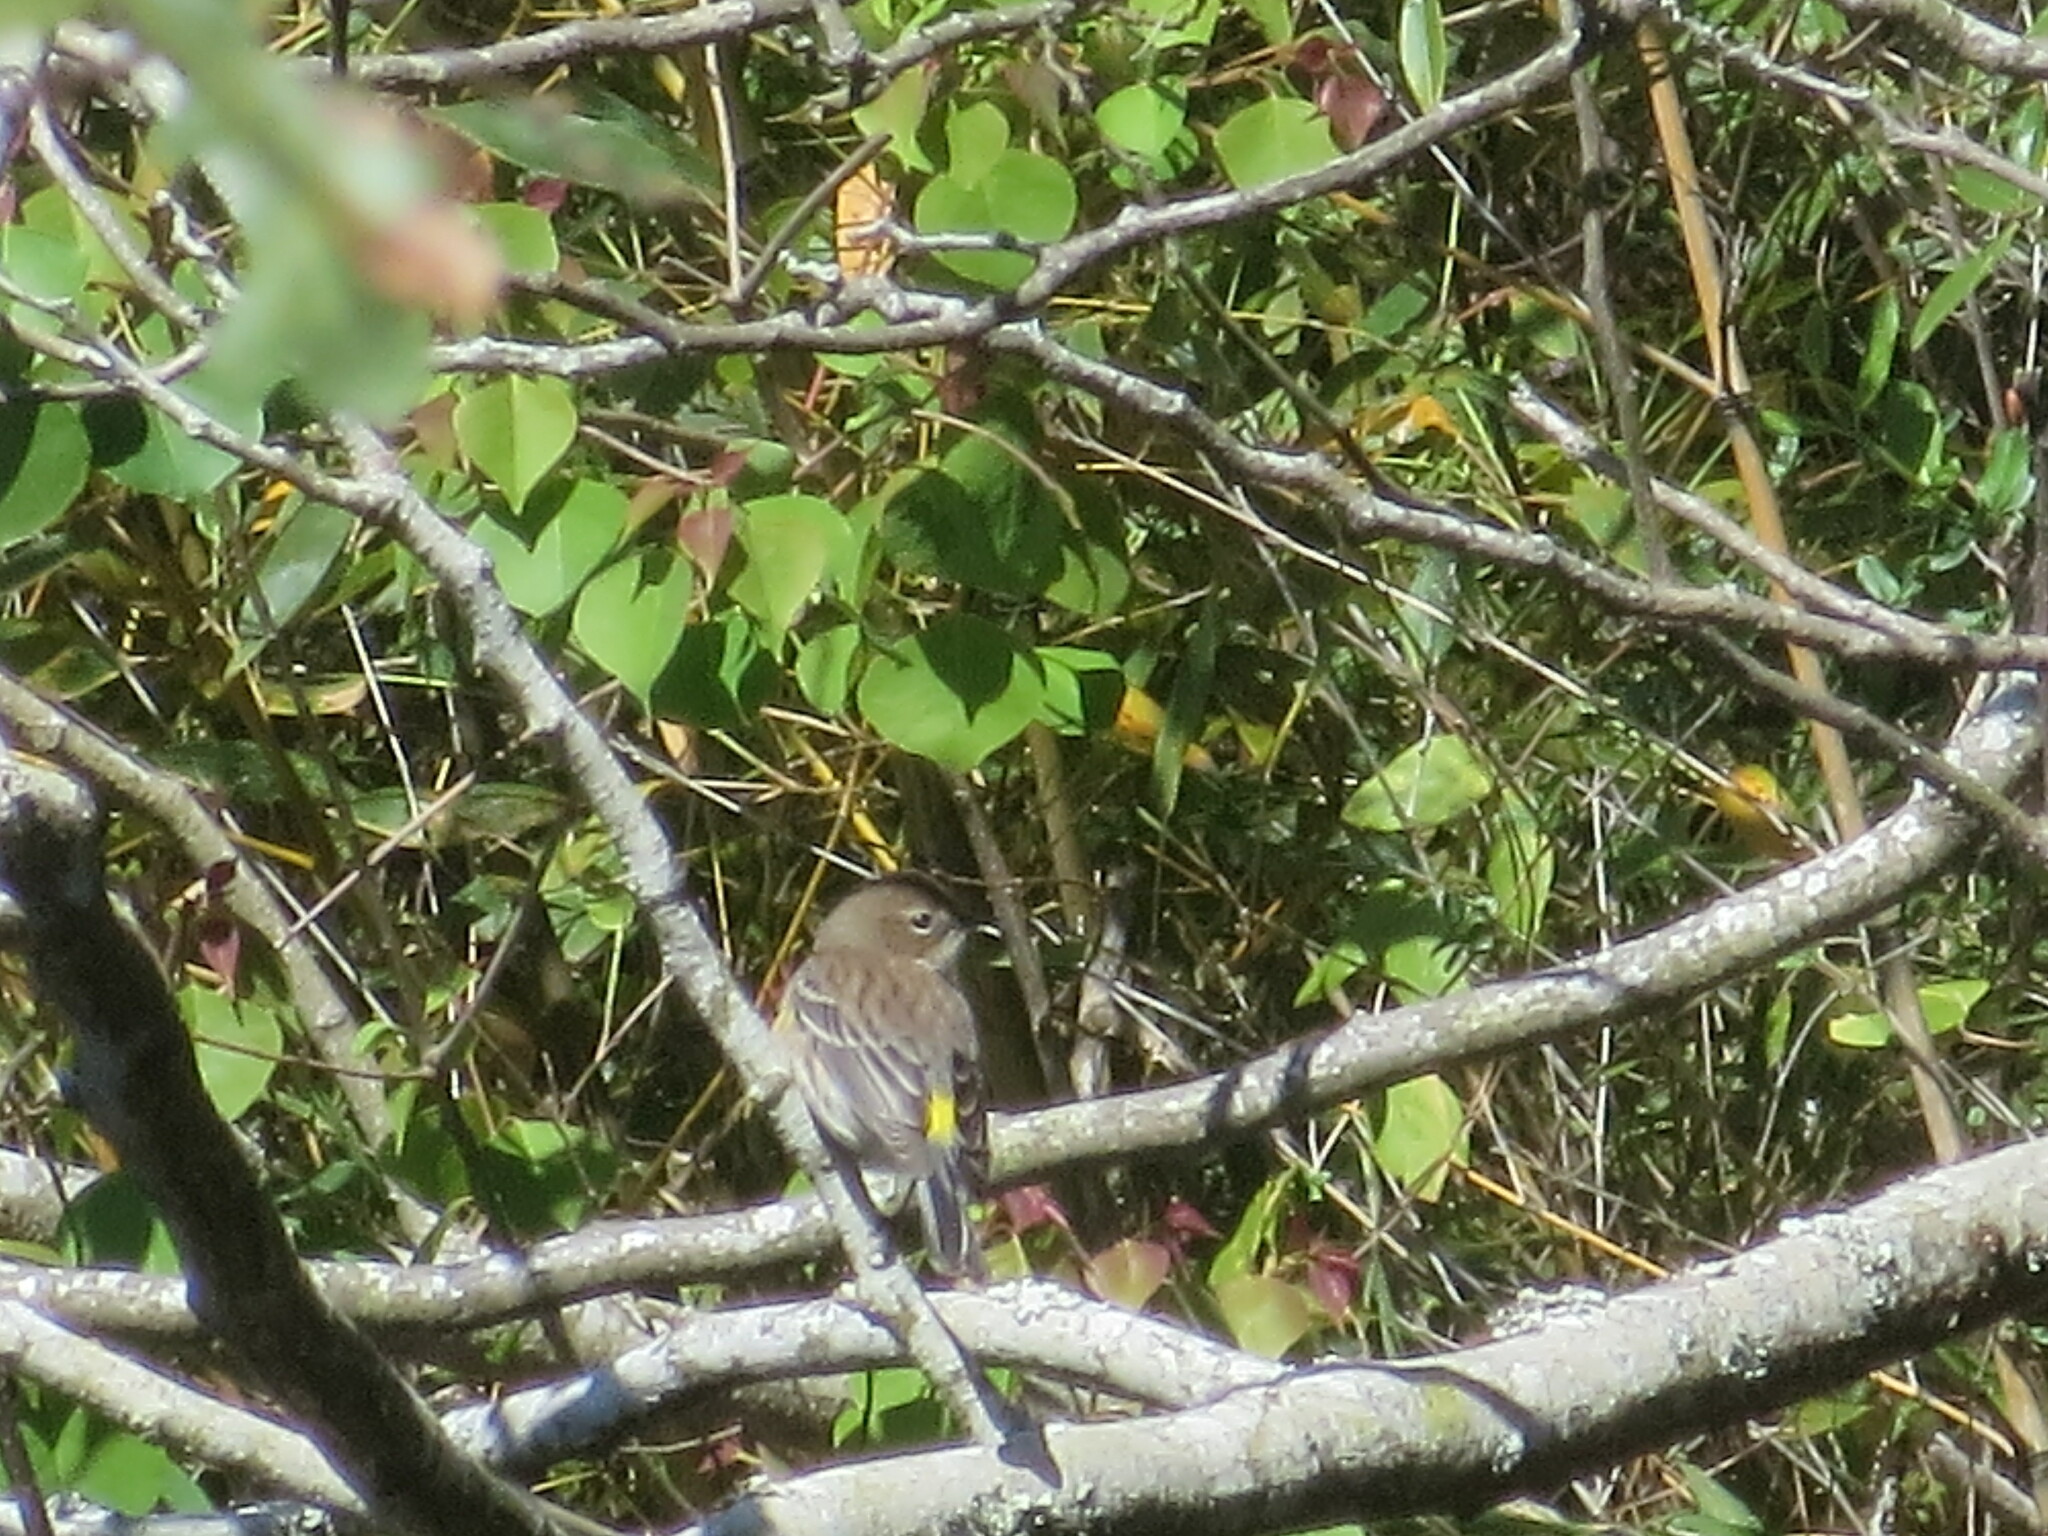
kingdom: Animalia
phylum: Chordata
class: Aves
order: Passeriformes
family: Parulidae
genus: Setophaga
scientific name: Setophaga coronata
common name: Myrtle warbler
